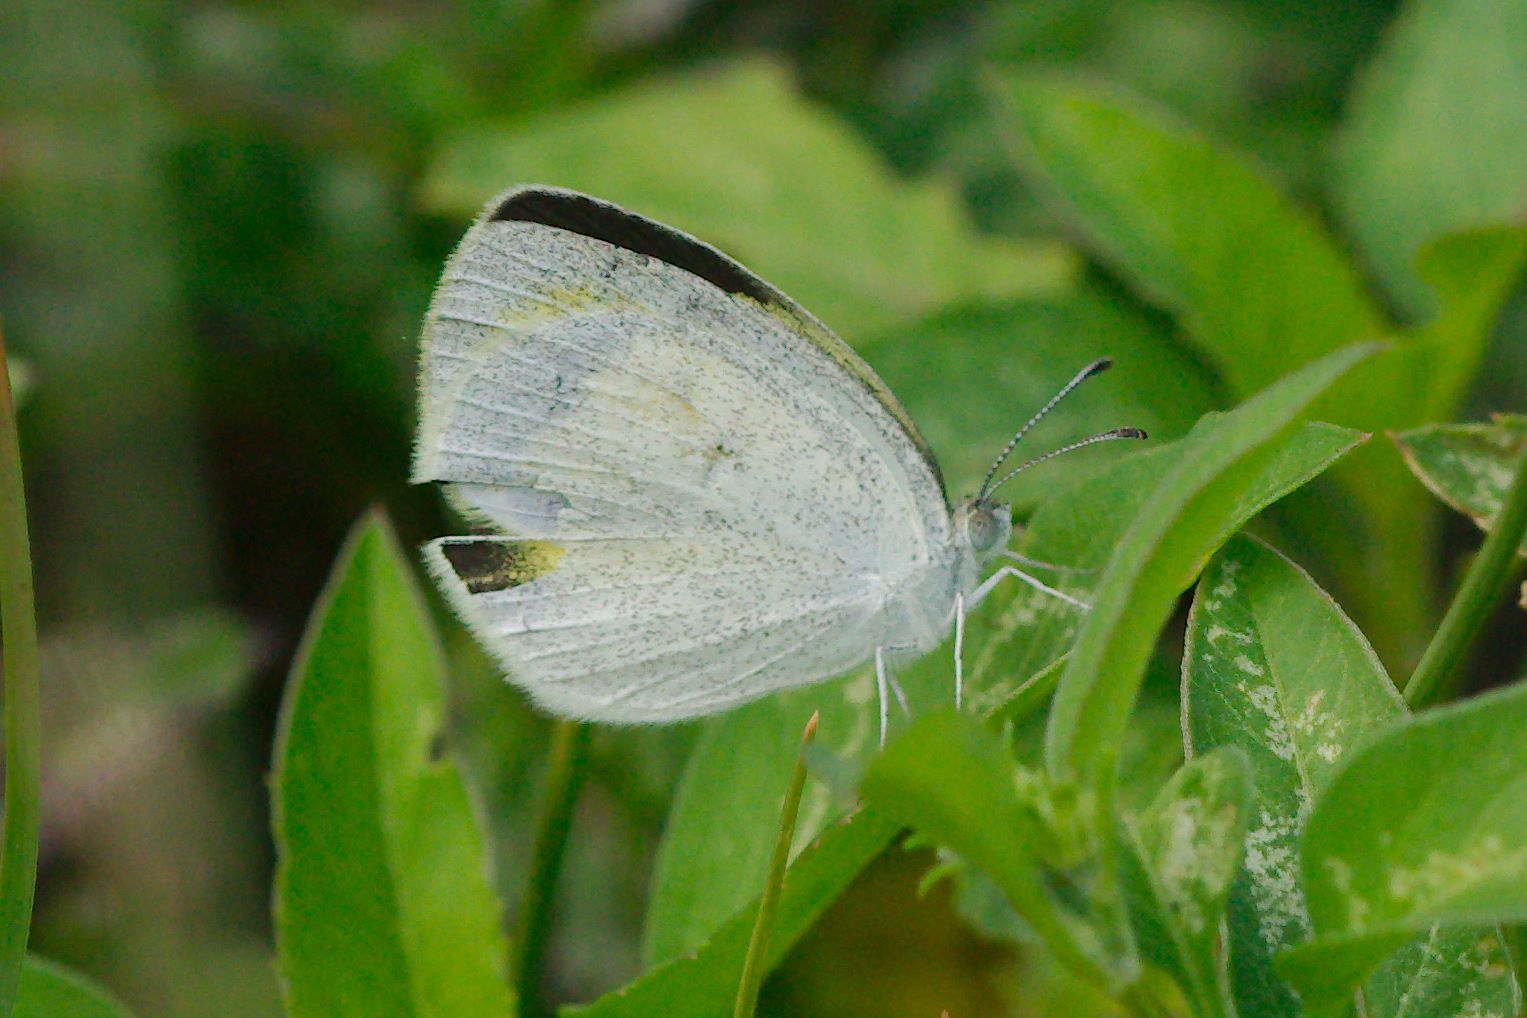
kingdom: Animalia
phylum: Arthropoda
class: Insecta
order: Lepidoptera
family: Pieridae
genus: Eurema
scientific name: Eurema daira
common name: Barred sulphur
